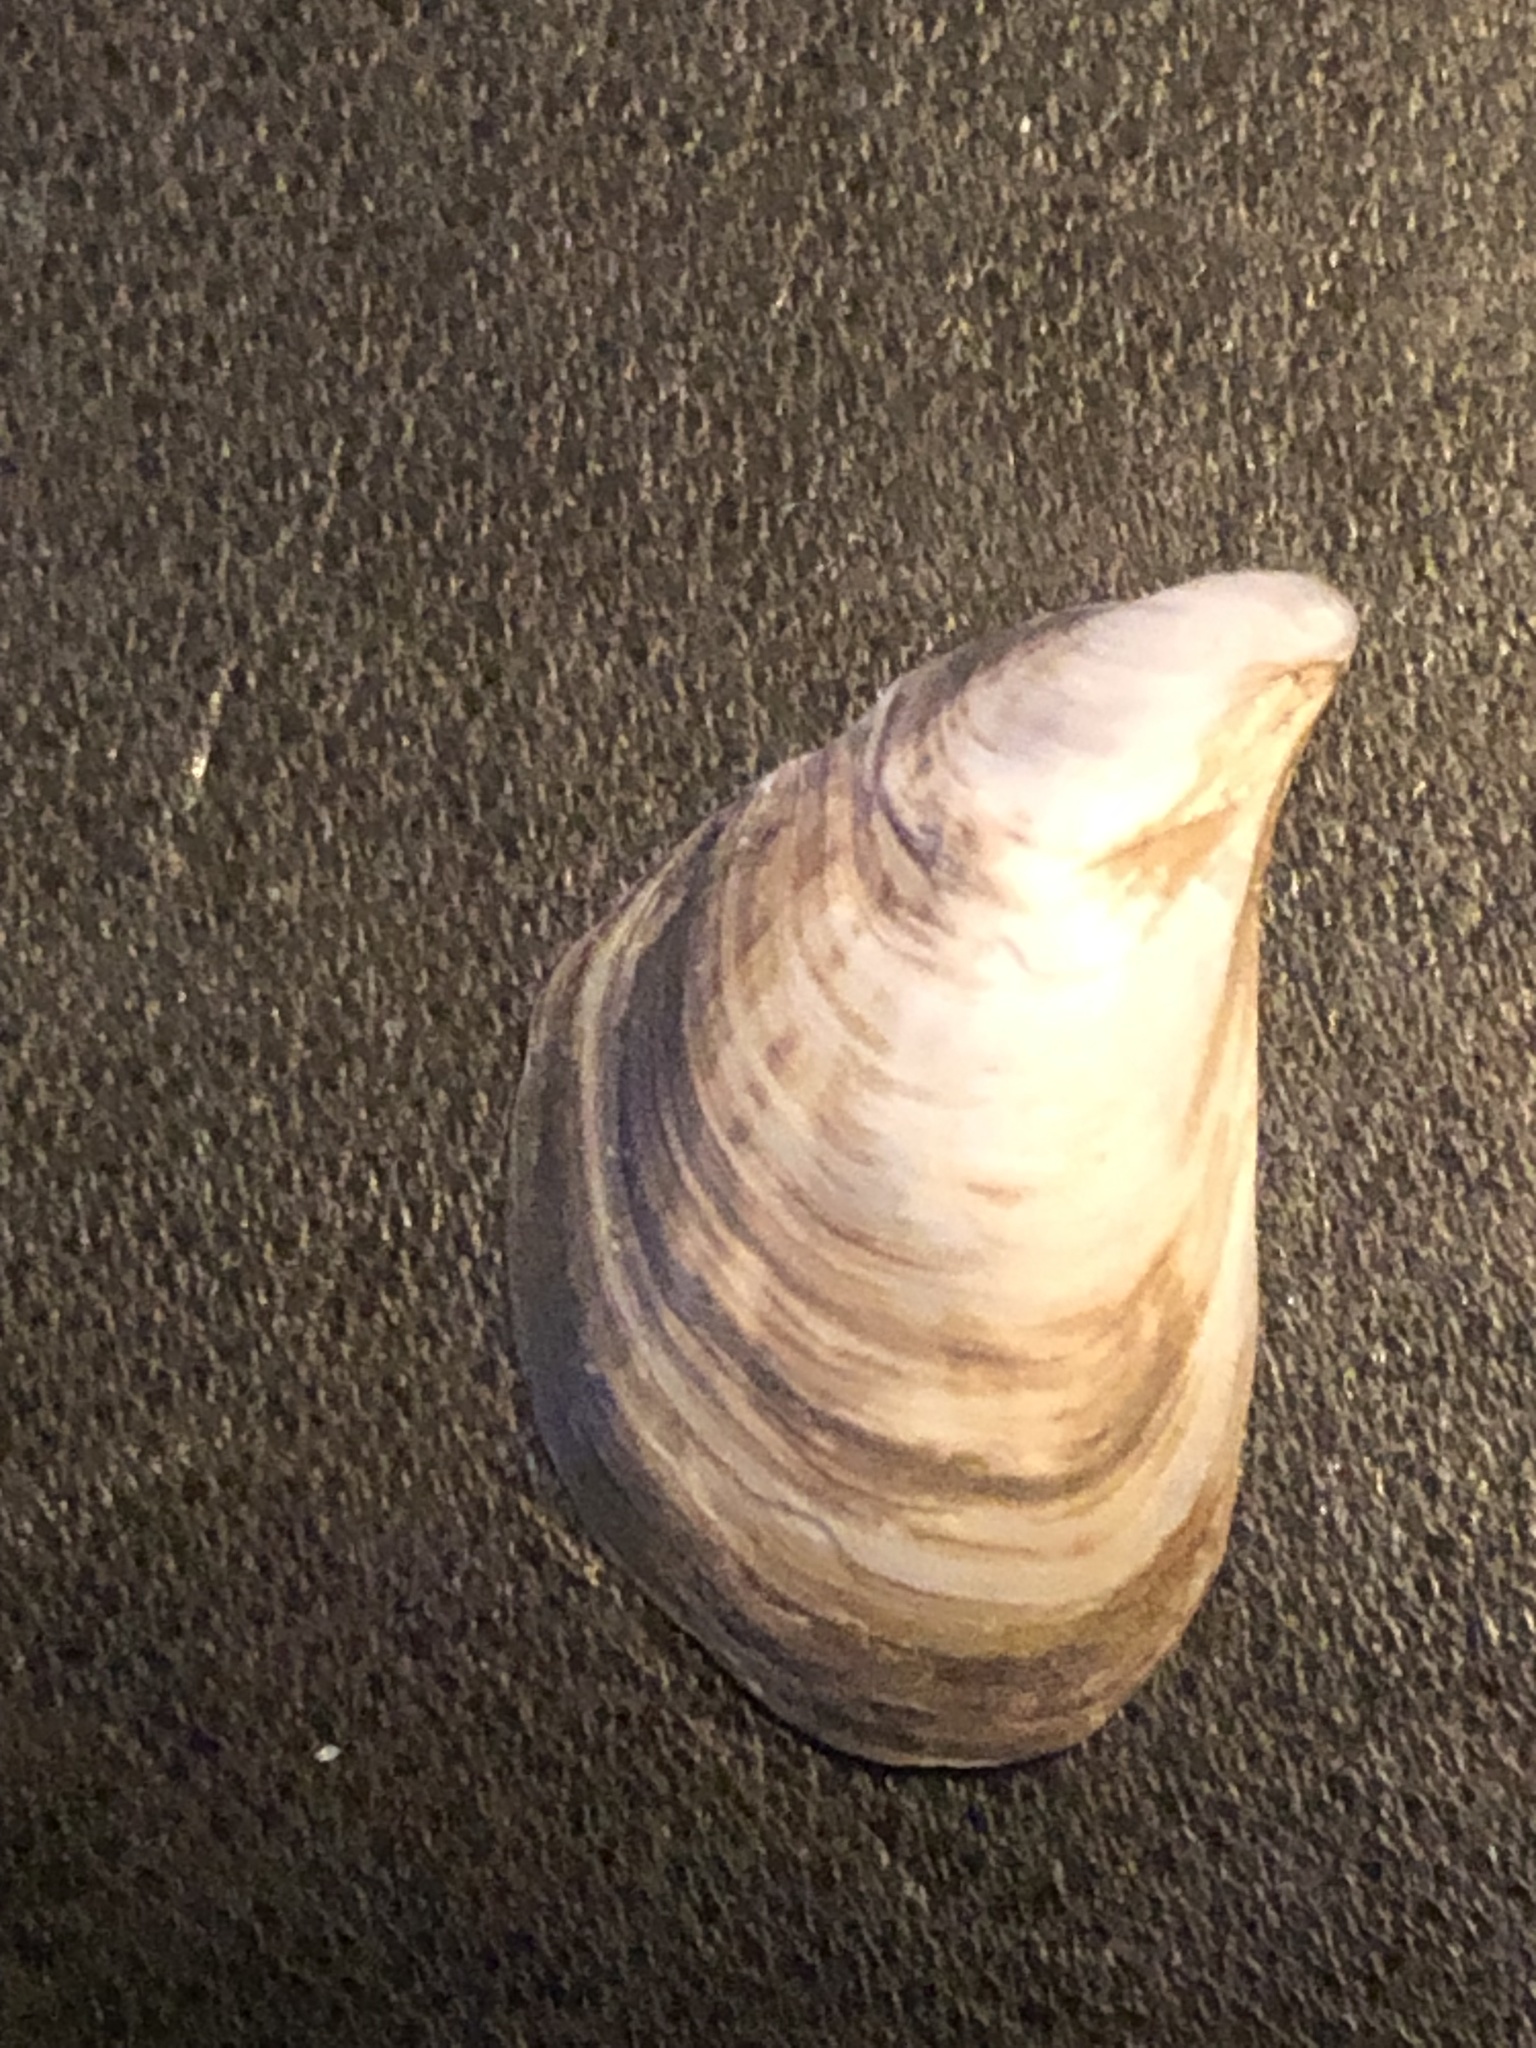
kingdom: Animalia
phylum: Mollusca
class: Bivalvia
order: Myida
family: Dreissenidae
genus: Dreissena
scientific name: Dreissena bugensis
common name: Quagga mussel
